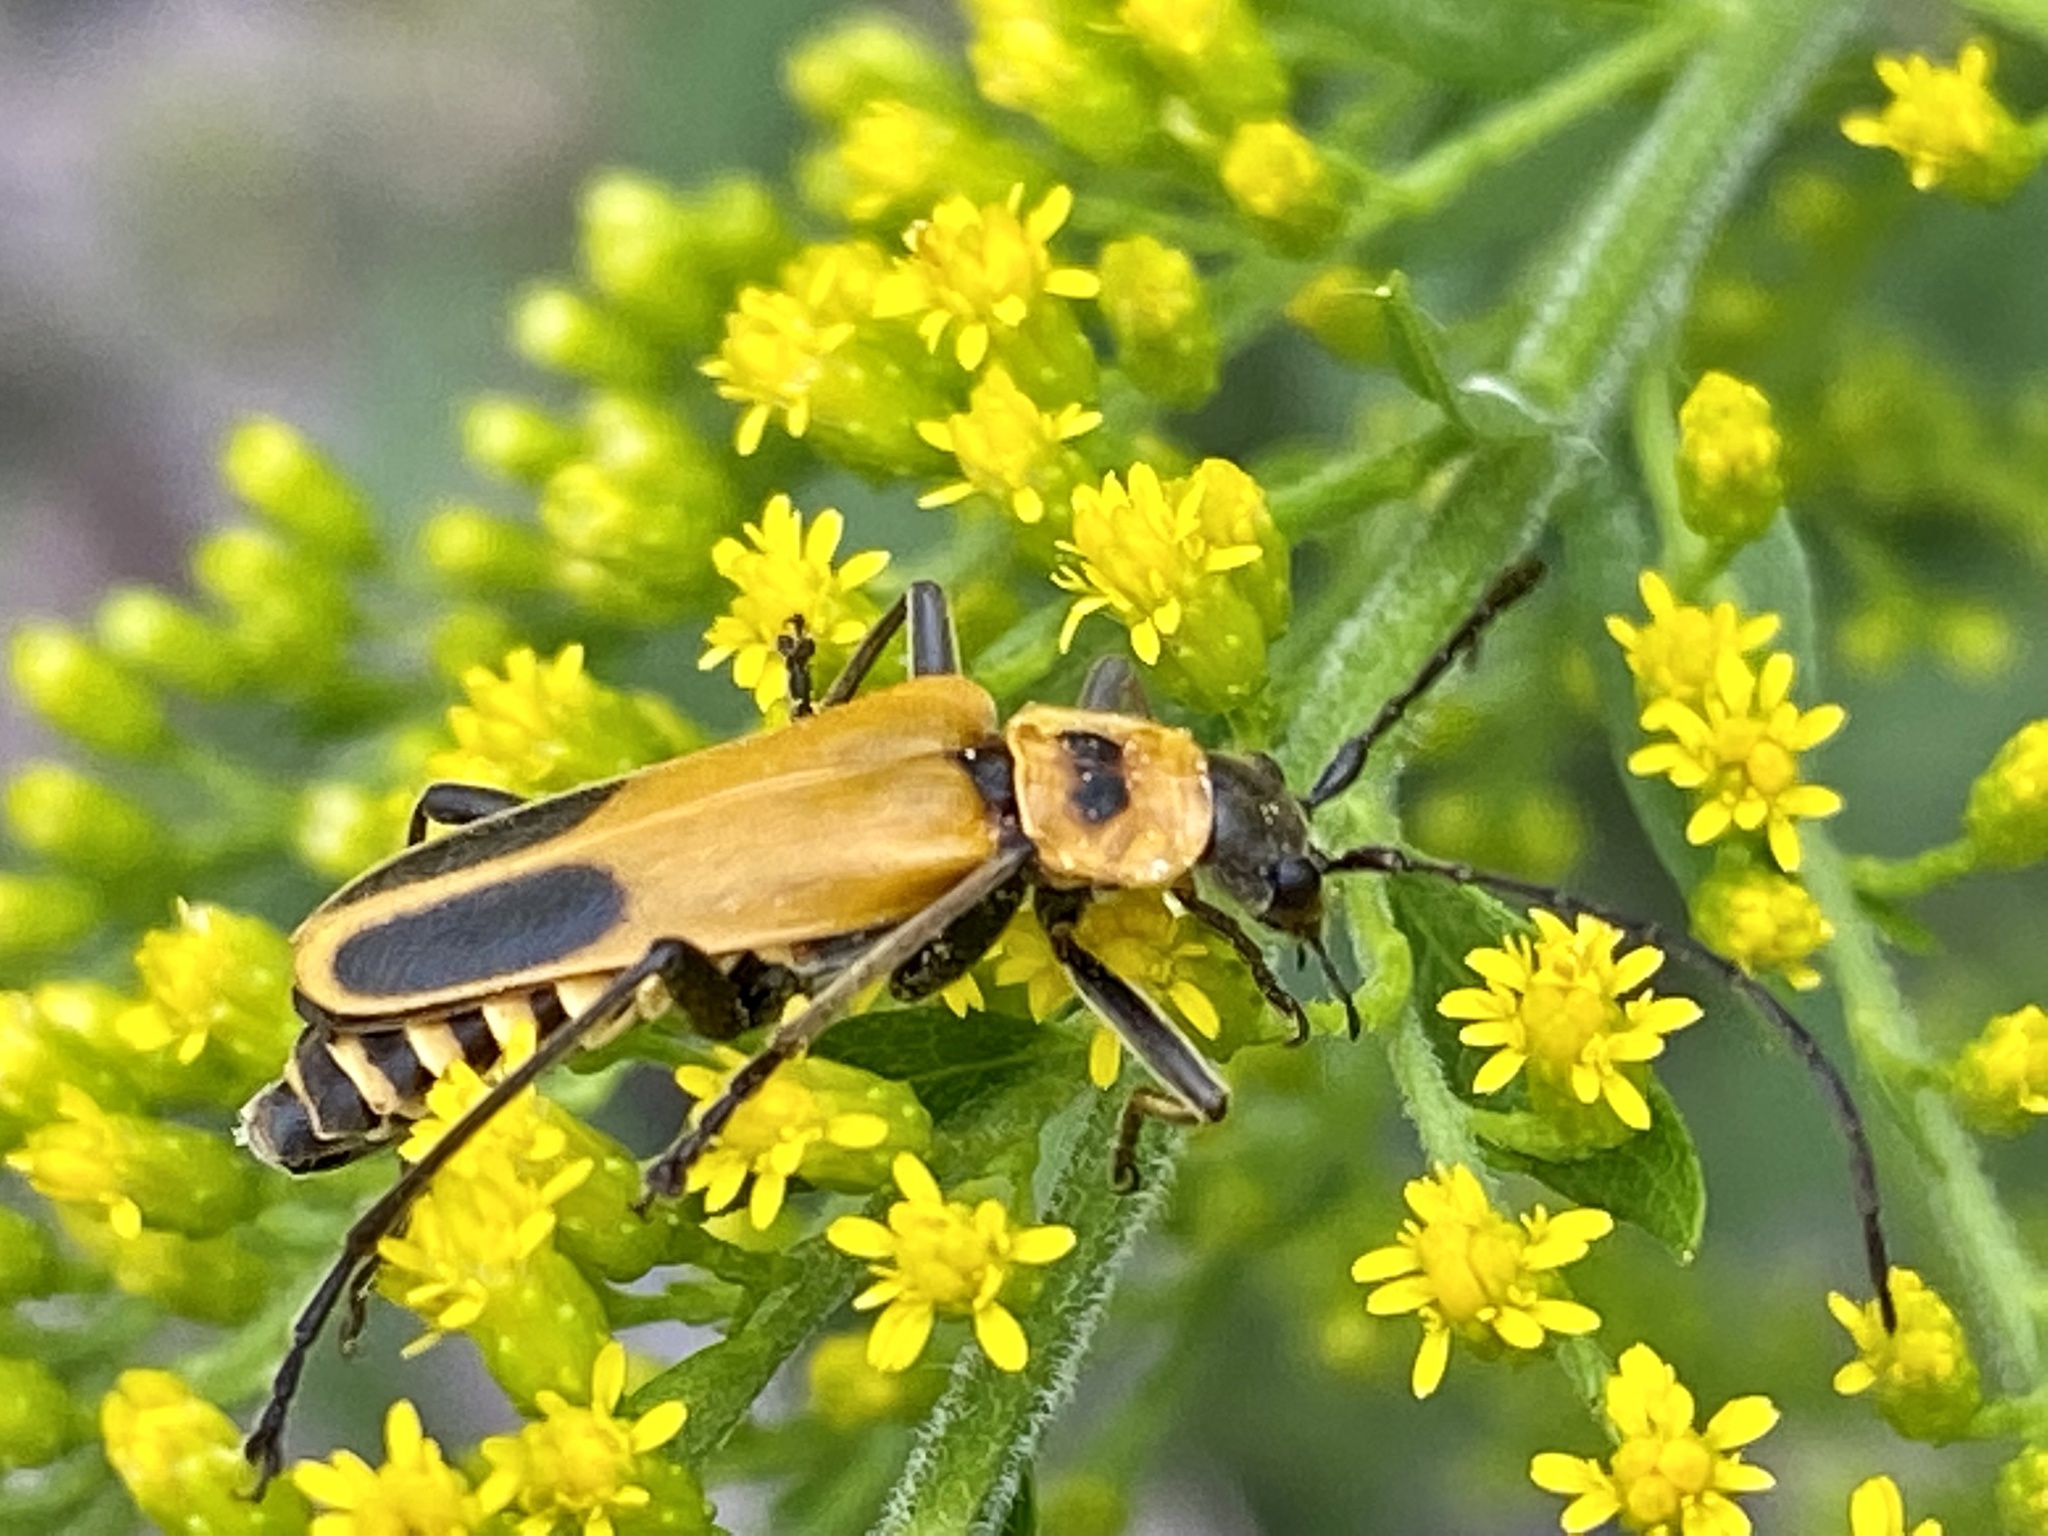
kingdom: Animalia
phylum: Arthropoda
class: Insecta
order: Coleoptera
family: Cantharidae
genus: Chauliognathus
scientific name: Chauliognathus pensylvanicus
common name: Goldenrod soldier beetle
